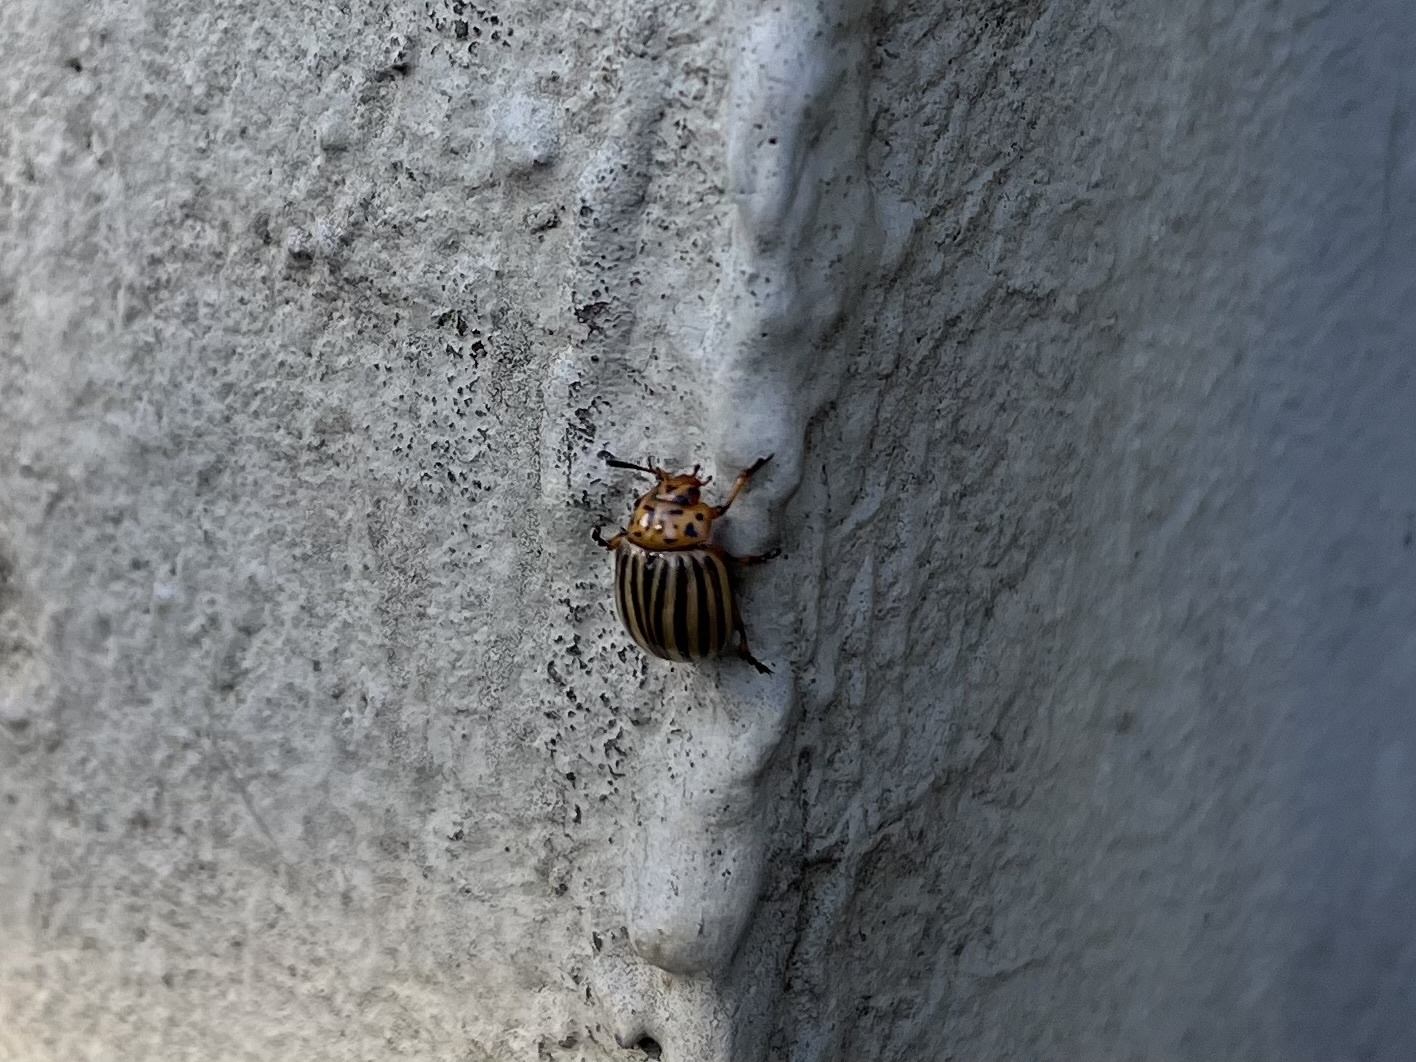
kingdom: Animalia
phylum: Arthropoda
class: Insecta
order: Coleoptera
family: Chrysomelidae
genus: Leptinotarsa
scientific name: Leptinotarsa decemlineata
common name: Colorado potato beetle
